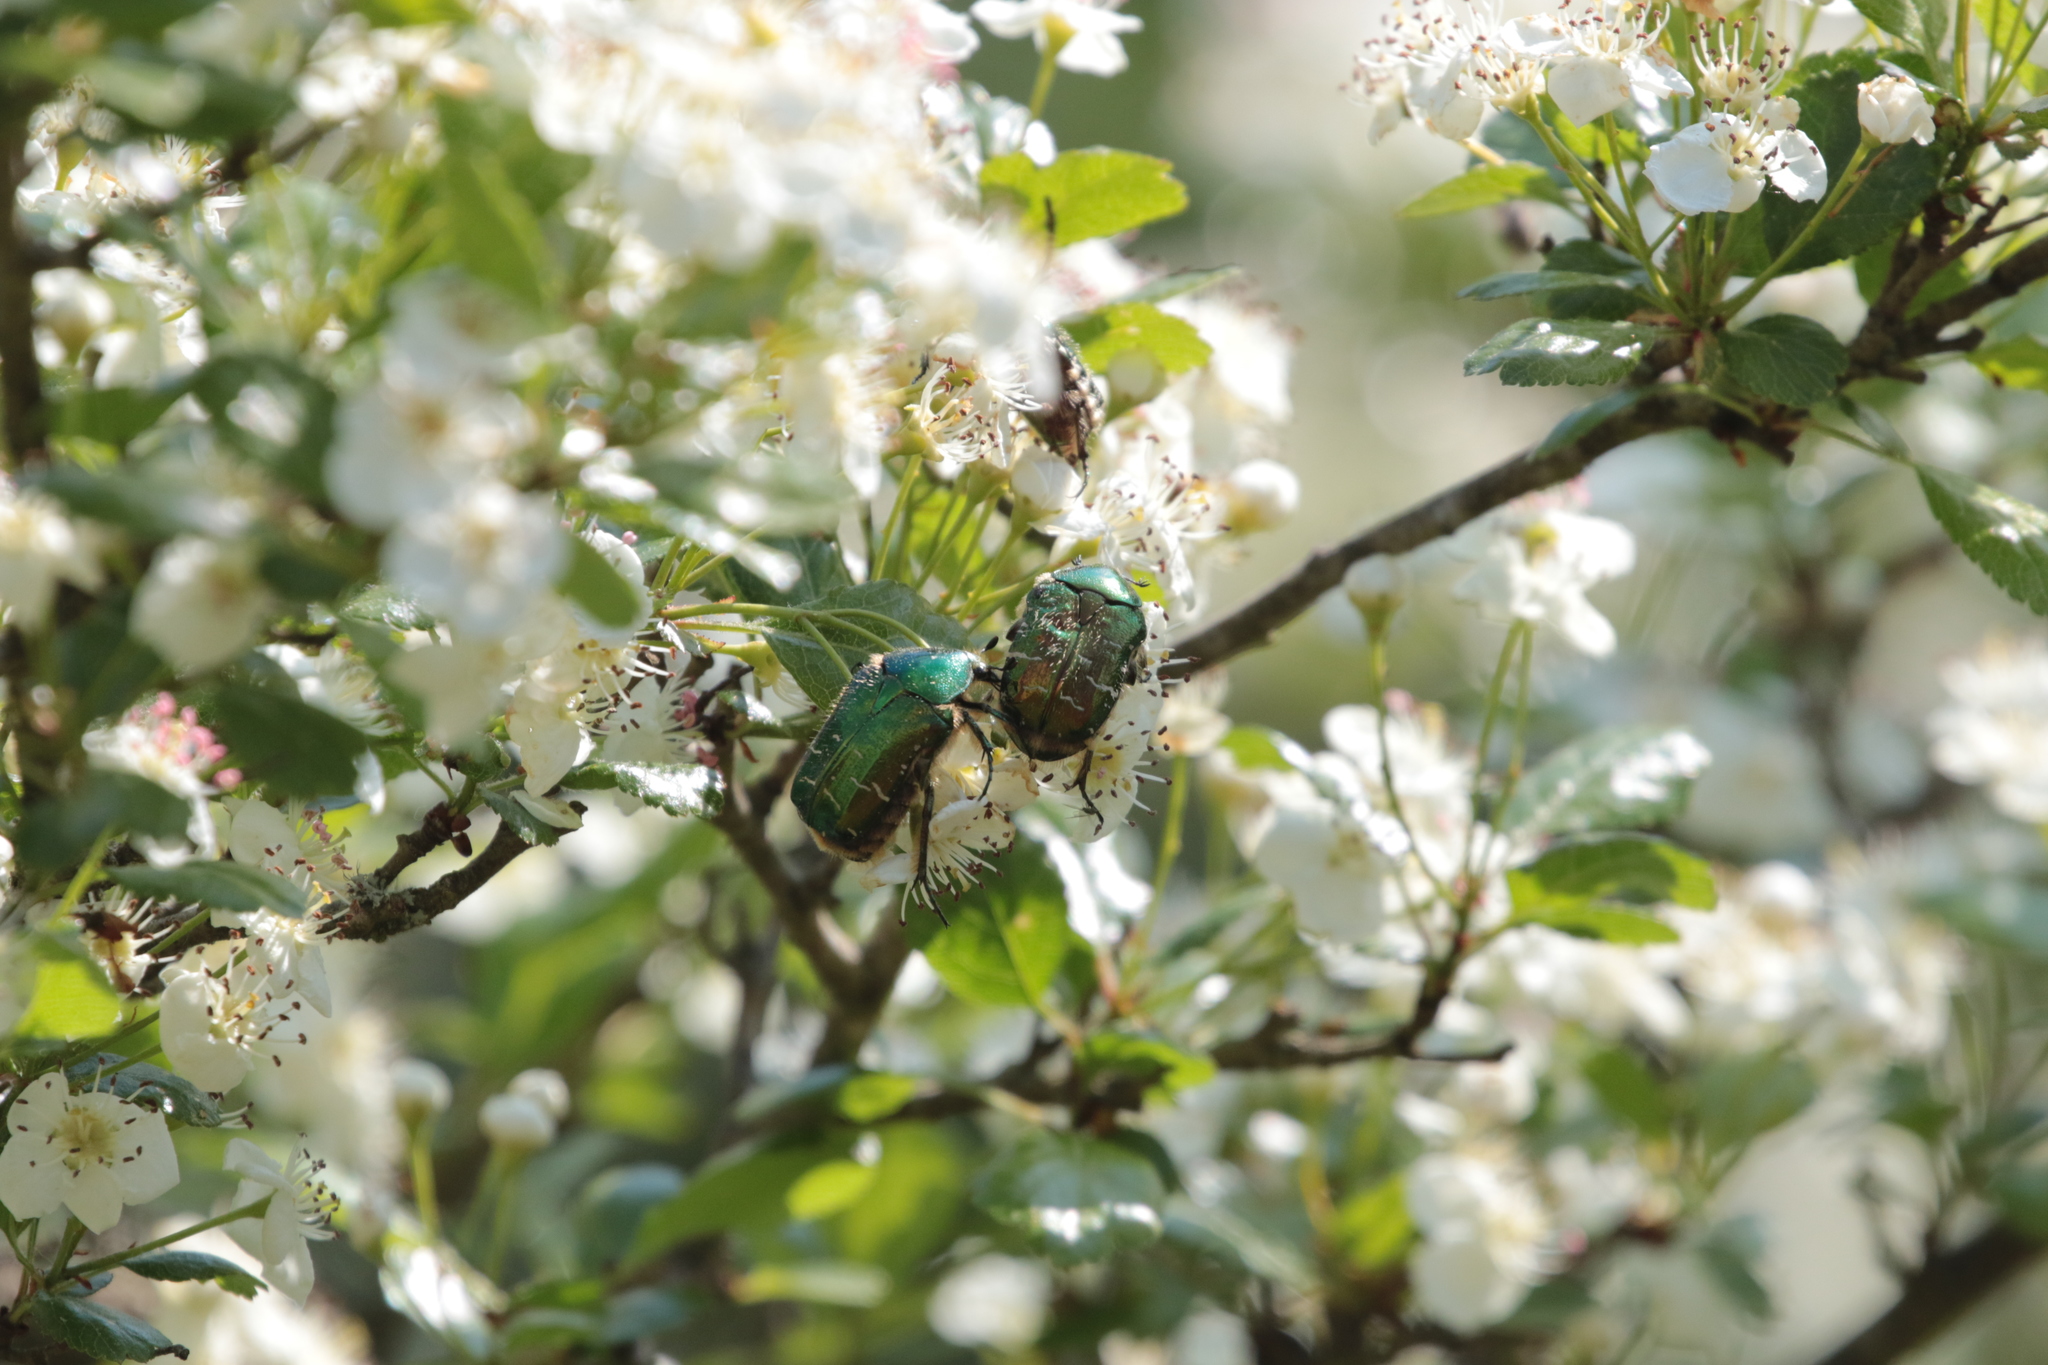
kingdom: Animalia
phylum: Arthropoda
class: Insecta
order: Coleoptera
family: Scarabaeidae
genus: Cetonia
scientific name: Cetonia aurata
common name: Rose chafer
